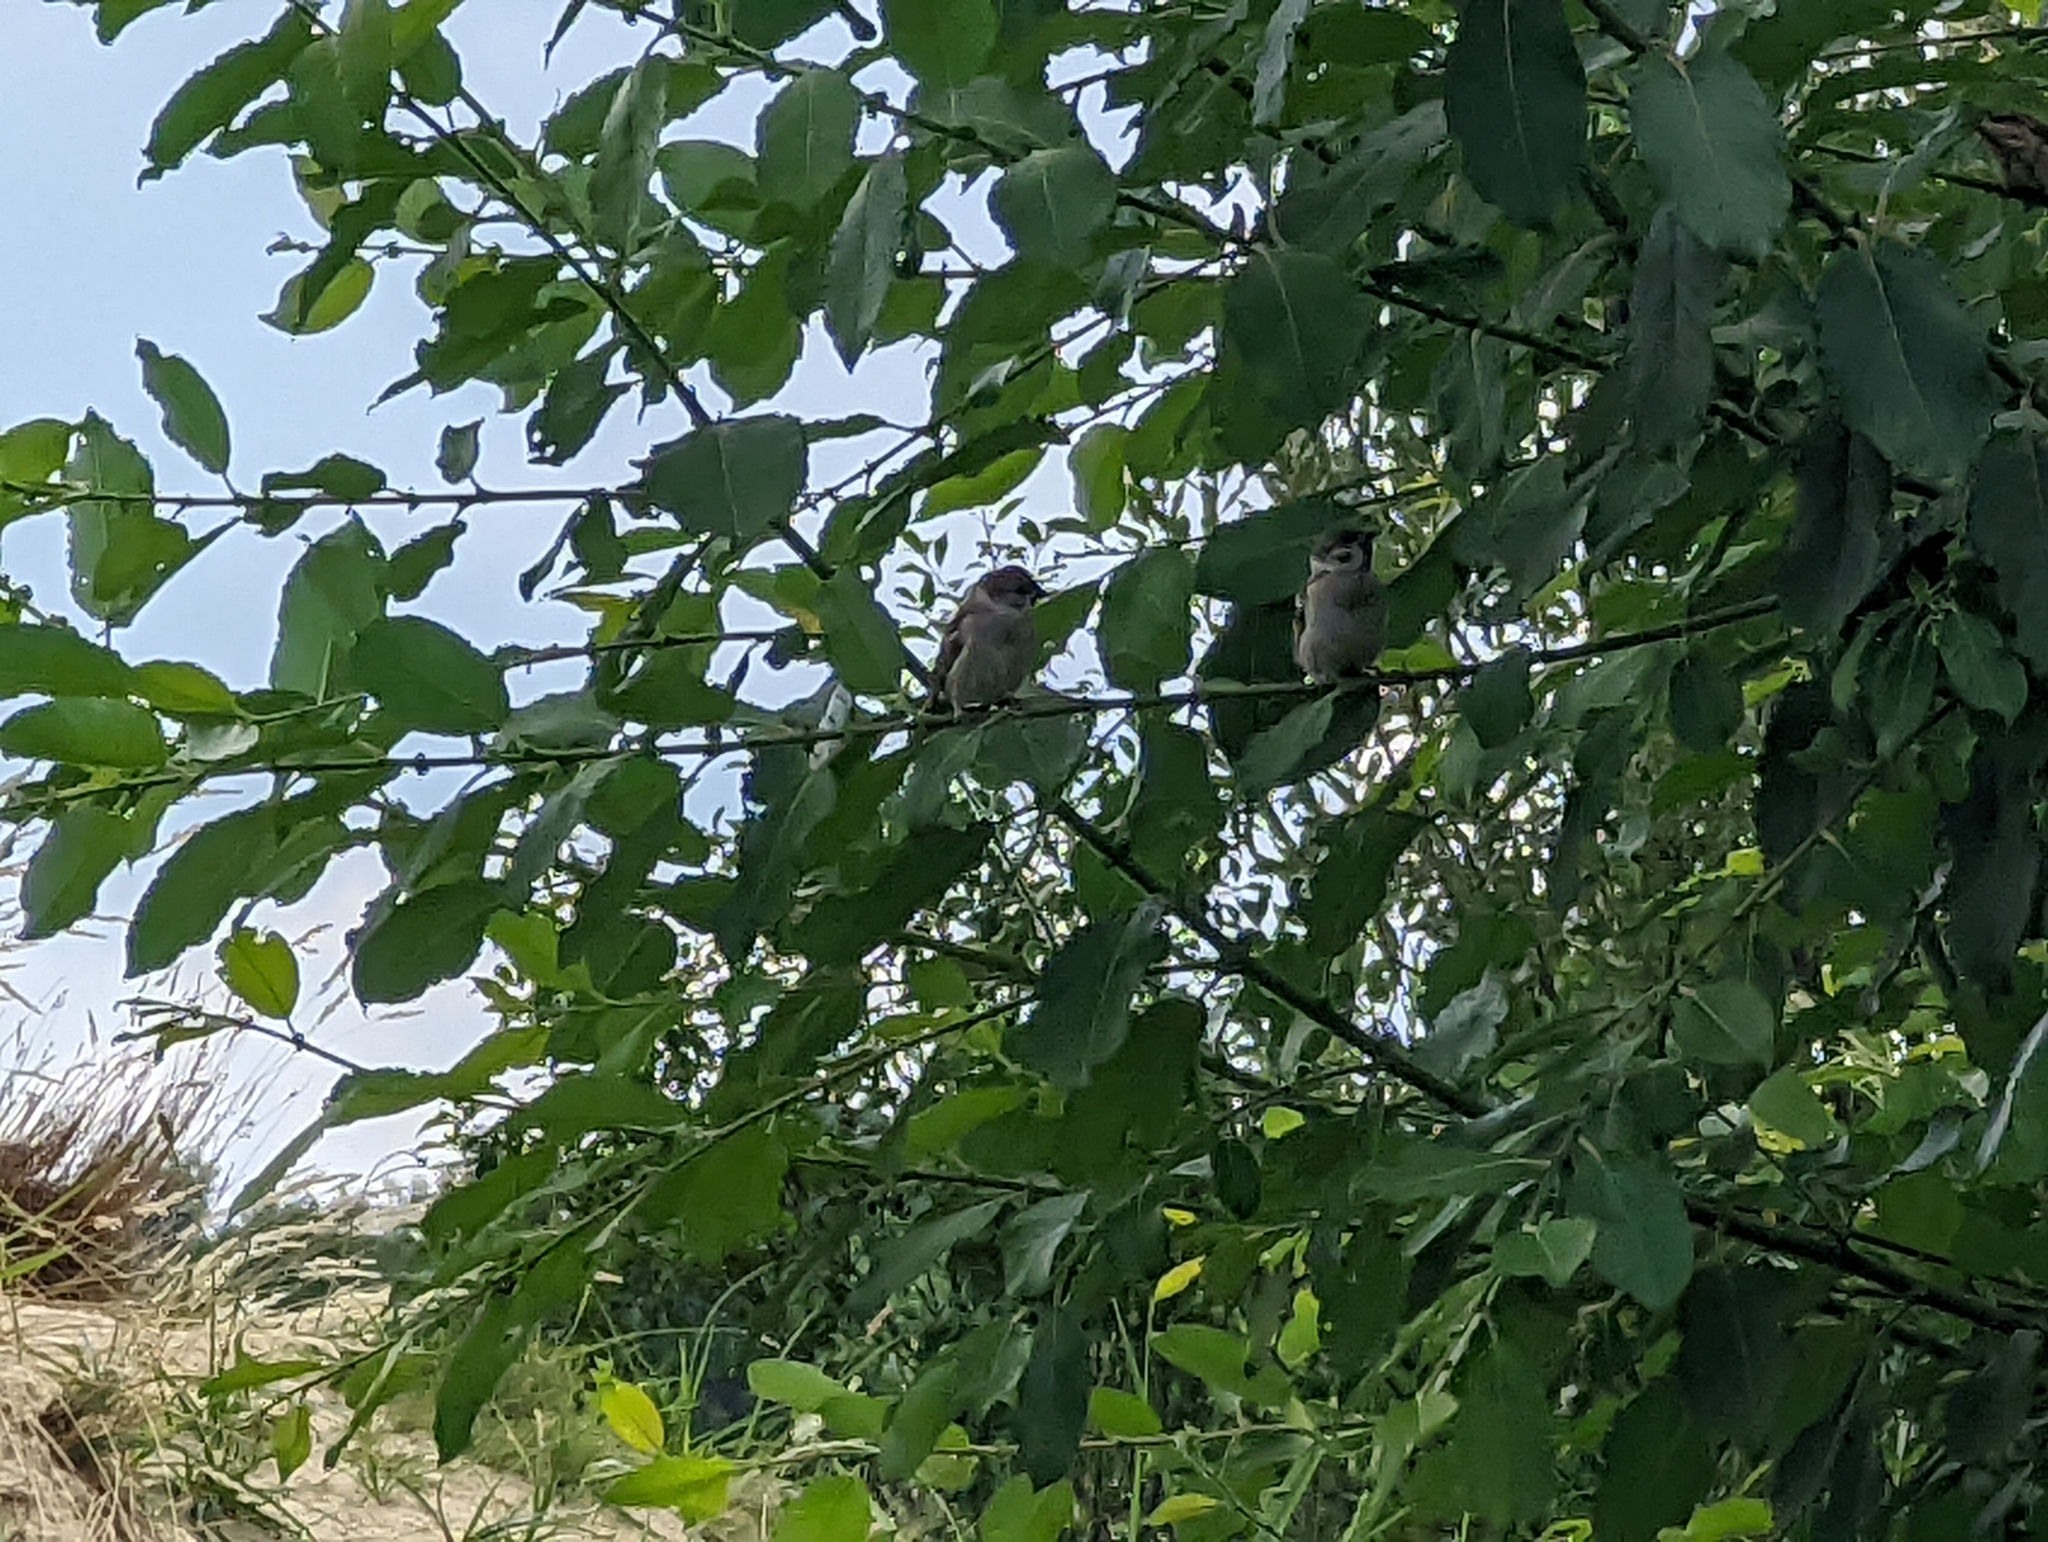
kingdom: Animalia
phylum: Chordata
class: Aves
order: Passeriformes
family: Passeridae
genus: Passer
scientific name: Passer montanus
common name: Eurasian tree sparrow
